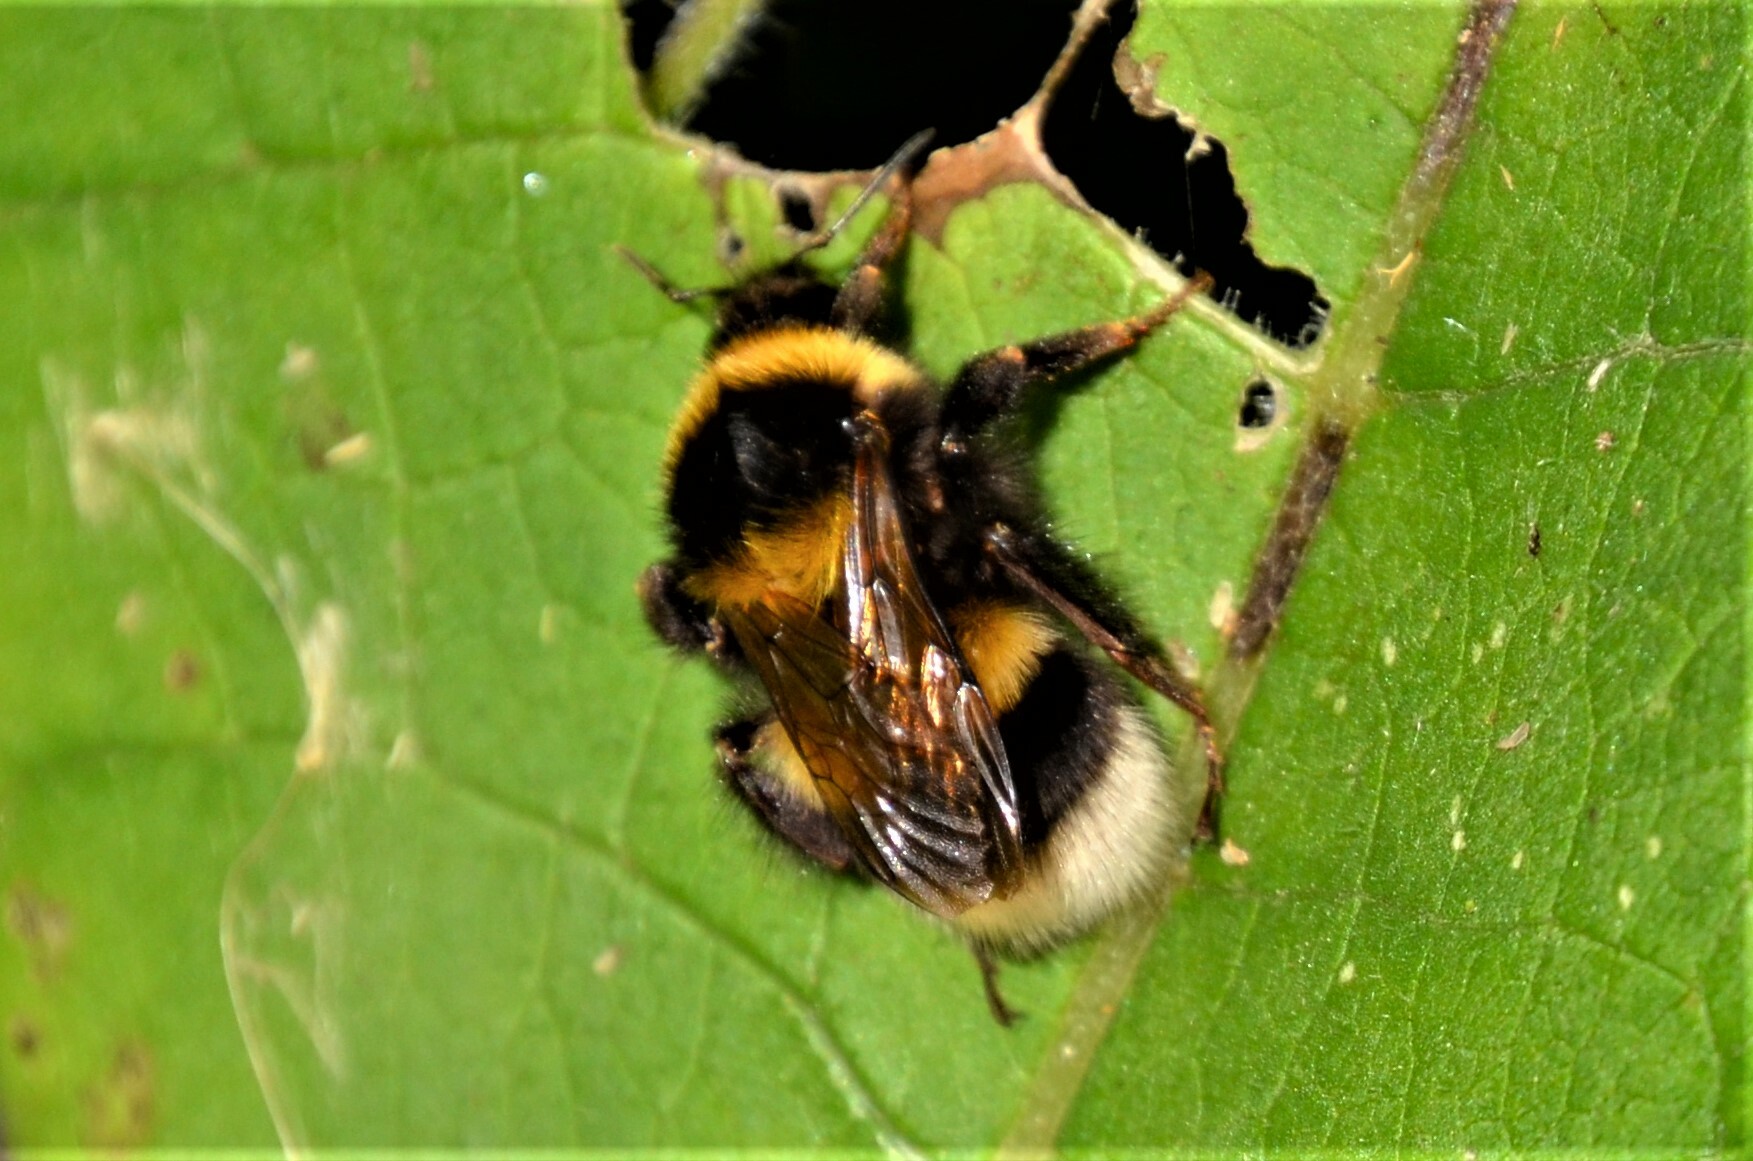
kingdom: Animalia
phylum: Arthropoda
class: Insecta
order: Hymenoptera
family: Apidae
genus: Bombus
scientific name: Bombus hortorum
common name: Garden bumblebee
